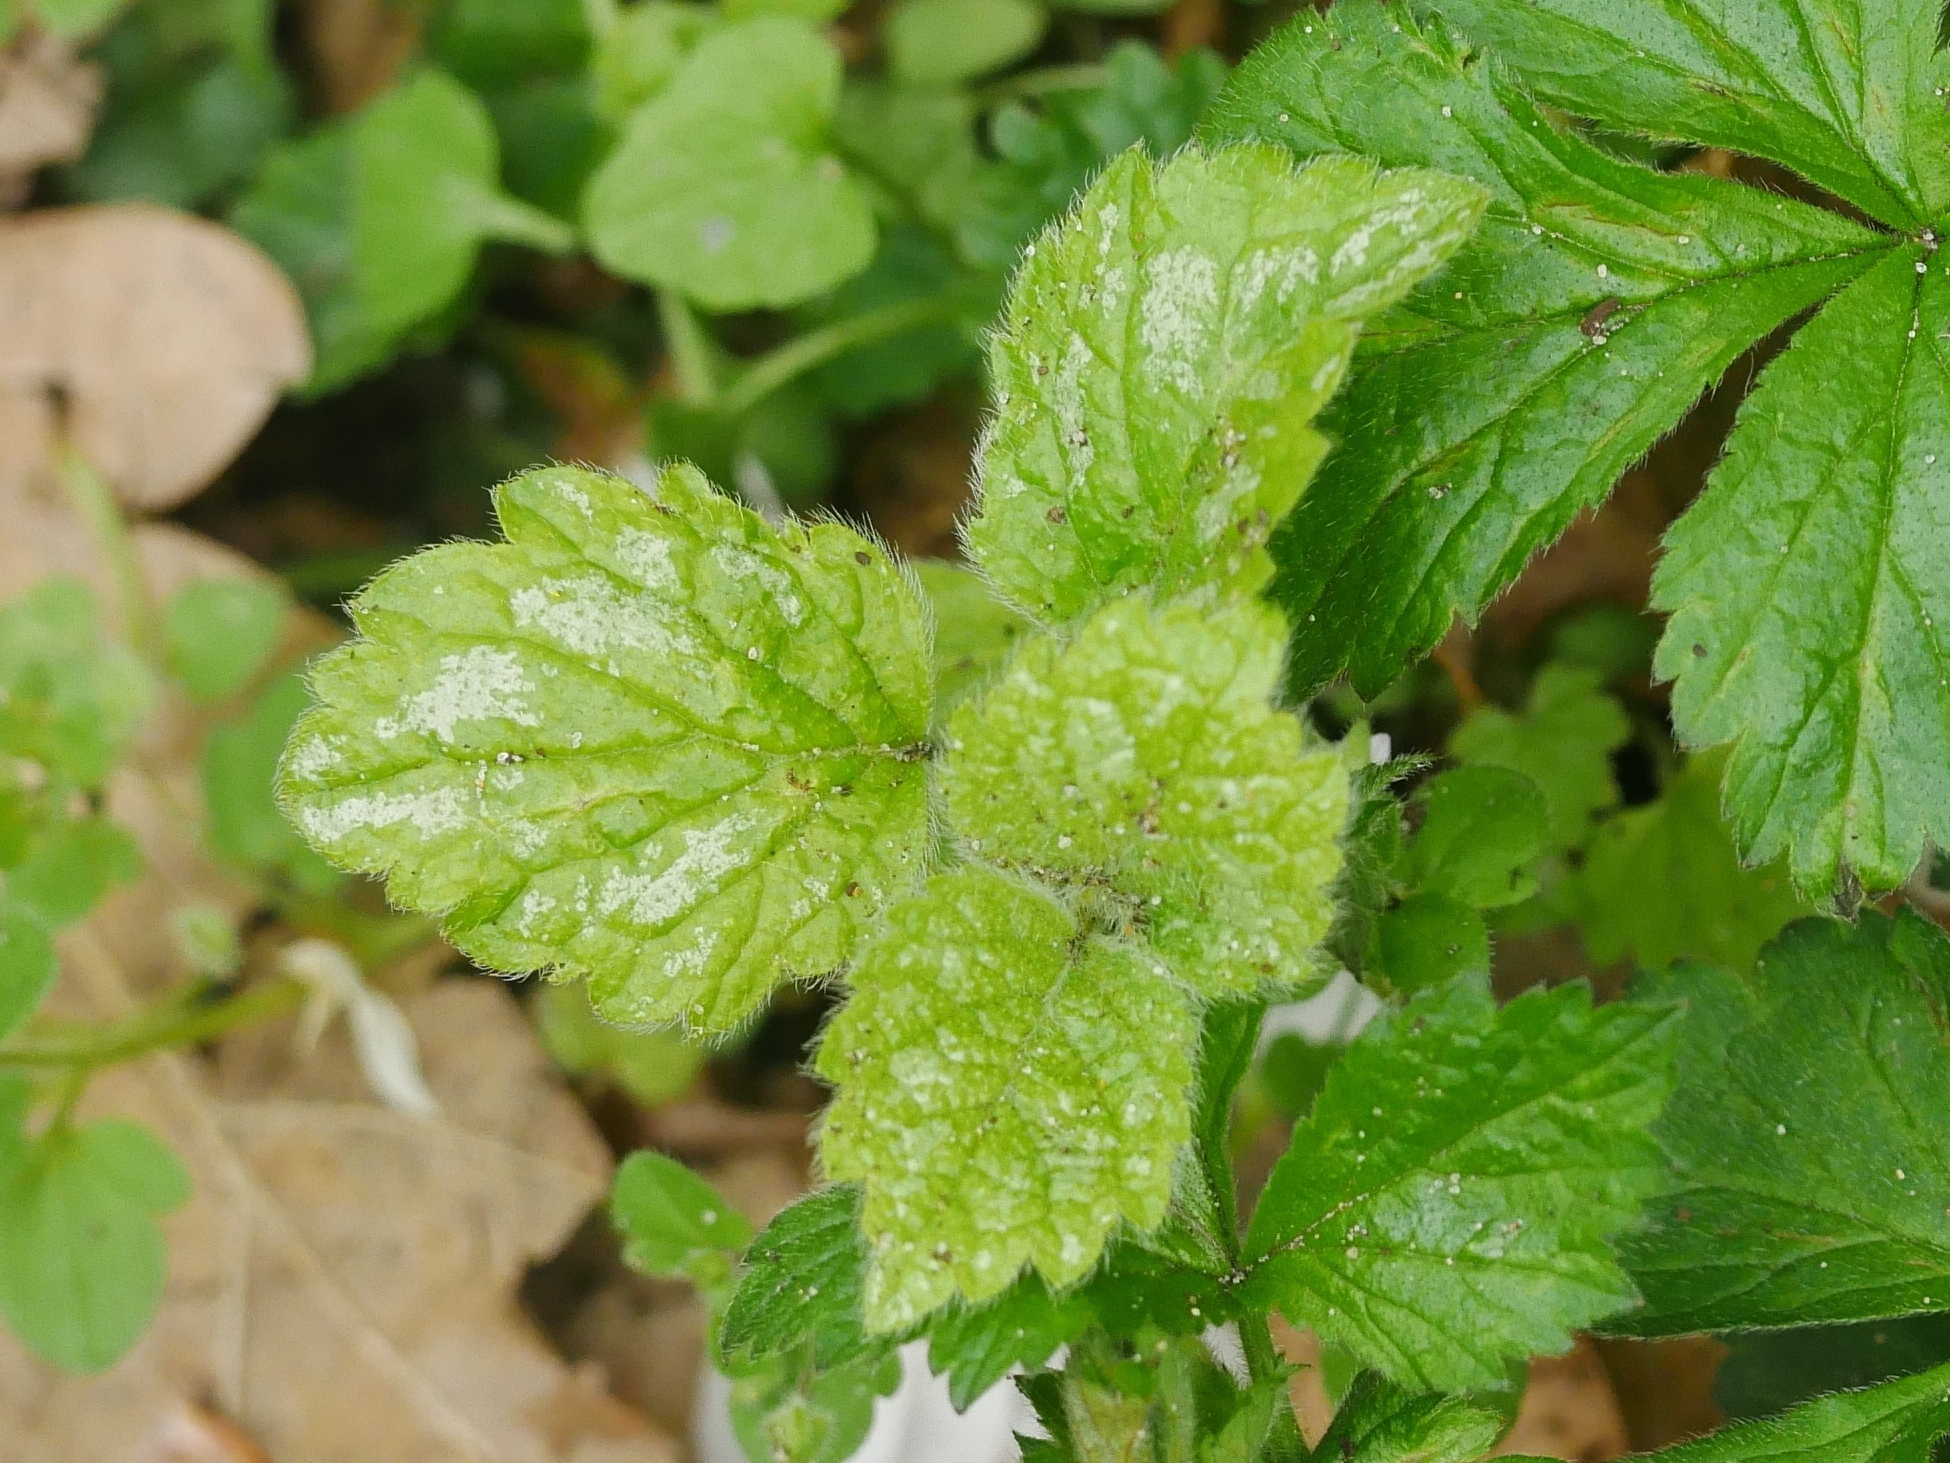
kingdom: Plantae
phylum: Tracheophyta
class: Magnoliopsida
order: Lamiales
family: Lamiaceae
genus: Lamium
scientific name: Lamium galeobdolon
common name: Yellow archangel
